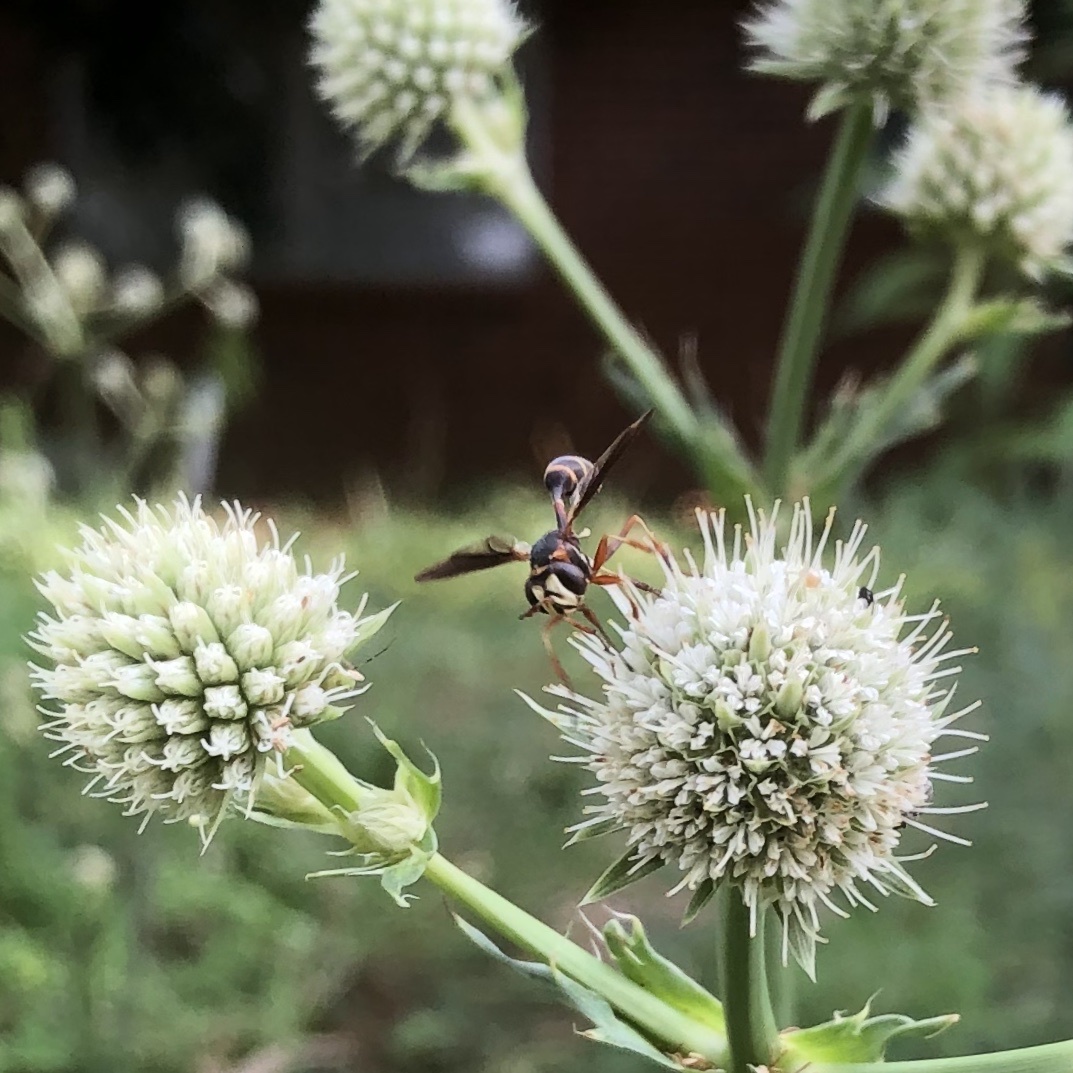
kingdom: Animalia
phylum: Arthropoda
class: Insecta
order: Diptera
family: Conopidae
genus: Physocephala
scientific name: Physocephala sagittaria
